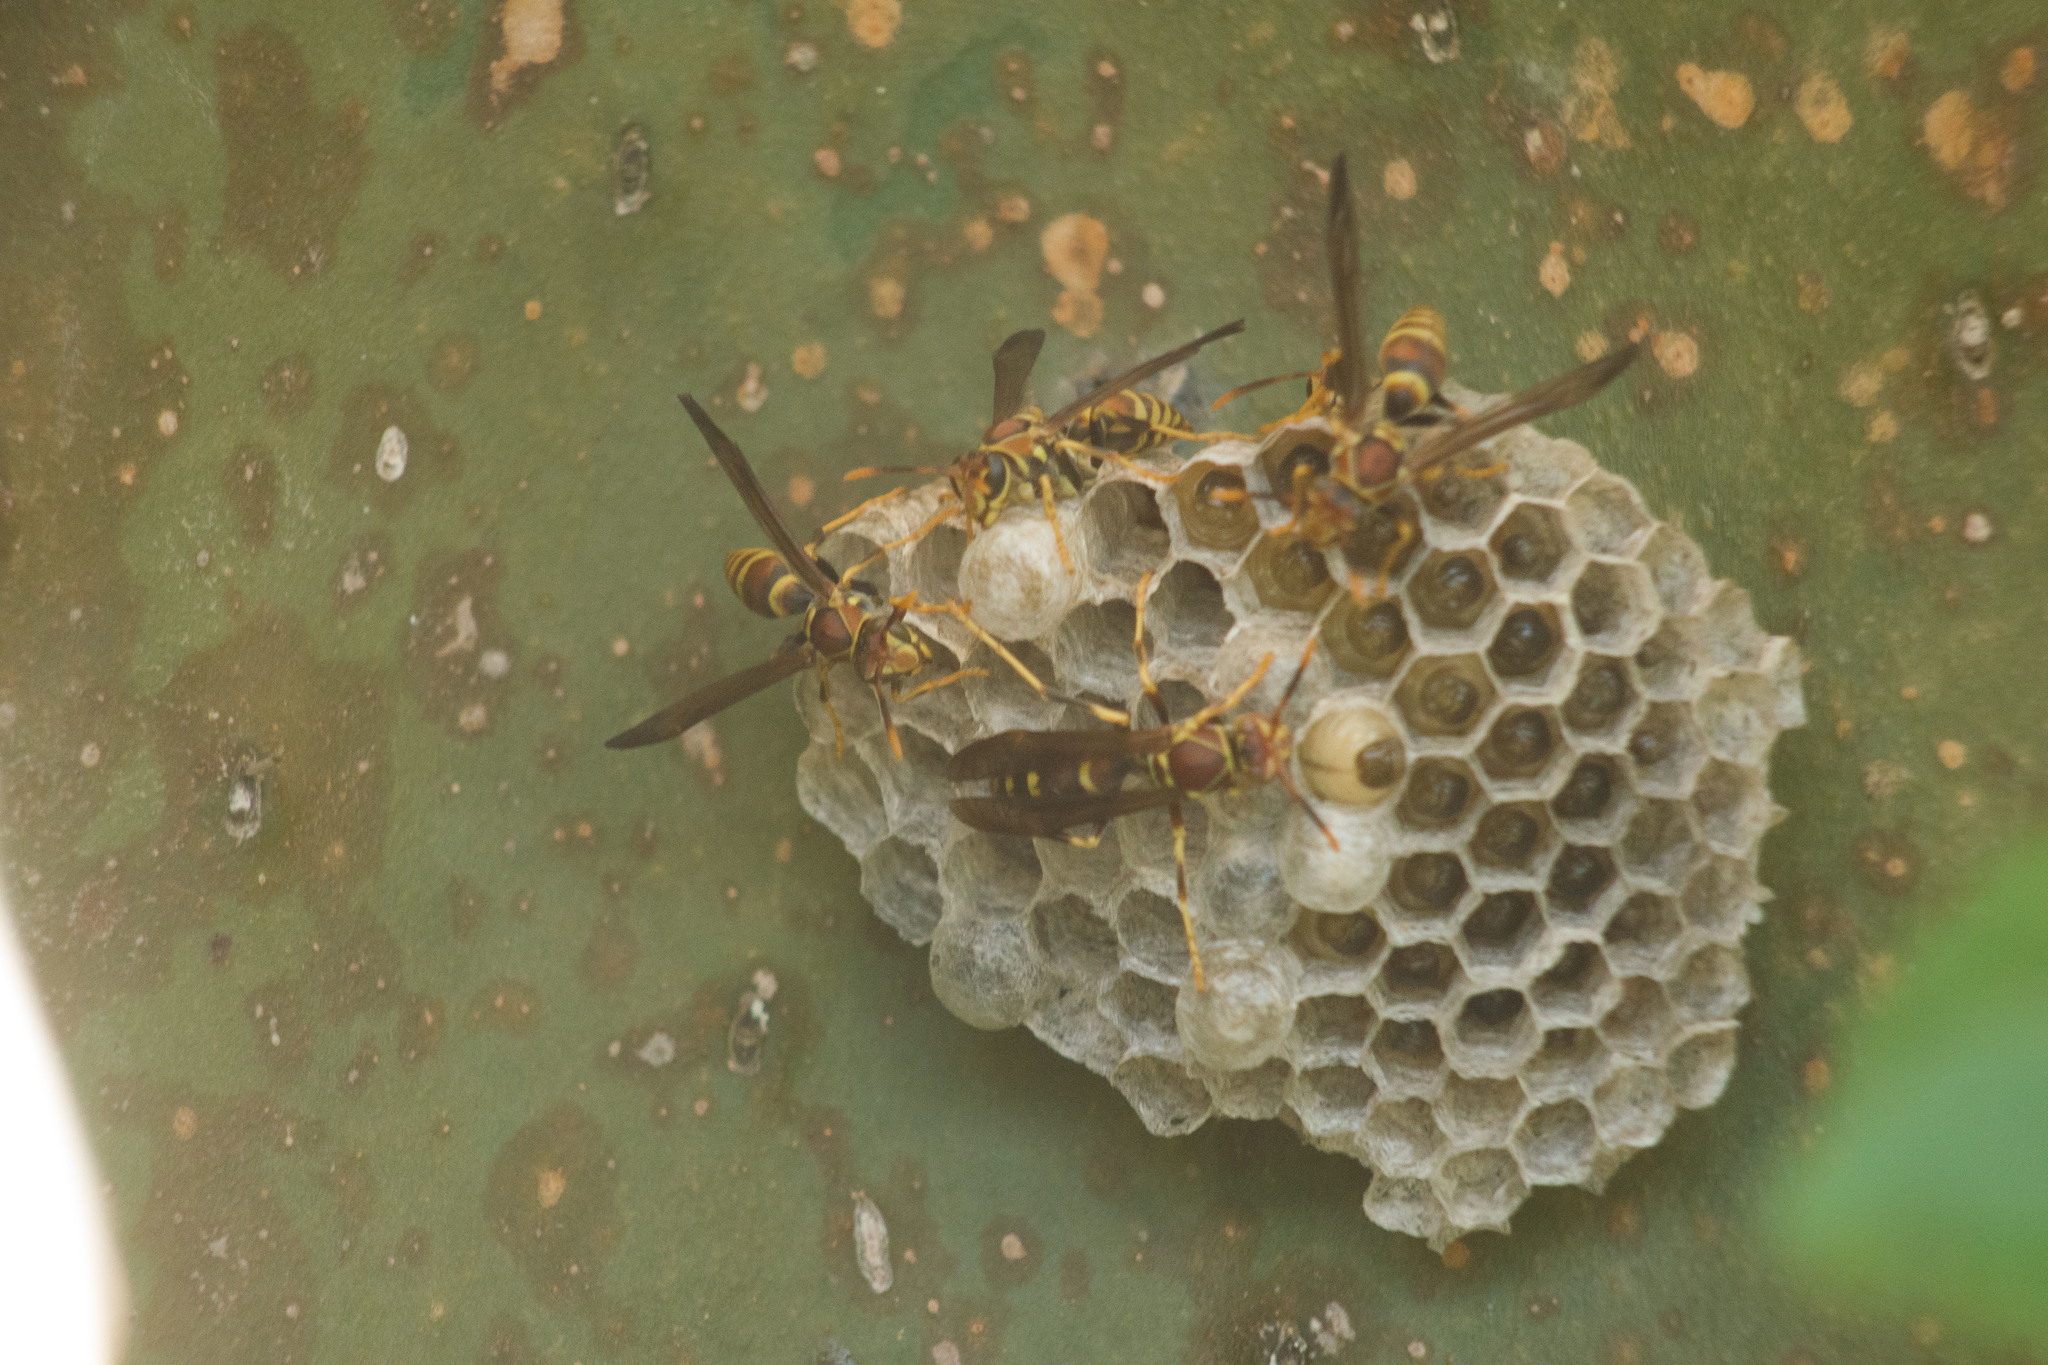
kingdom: Animalia
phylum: Arthropoda
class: Insecta
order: Hymenoptera
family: Eumenidae
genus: Polistes
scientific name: Polistes exclamans
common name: Paper wasp
